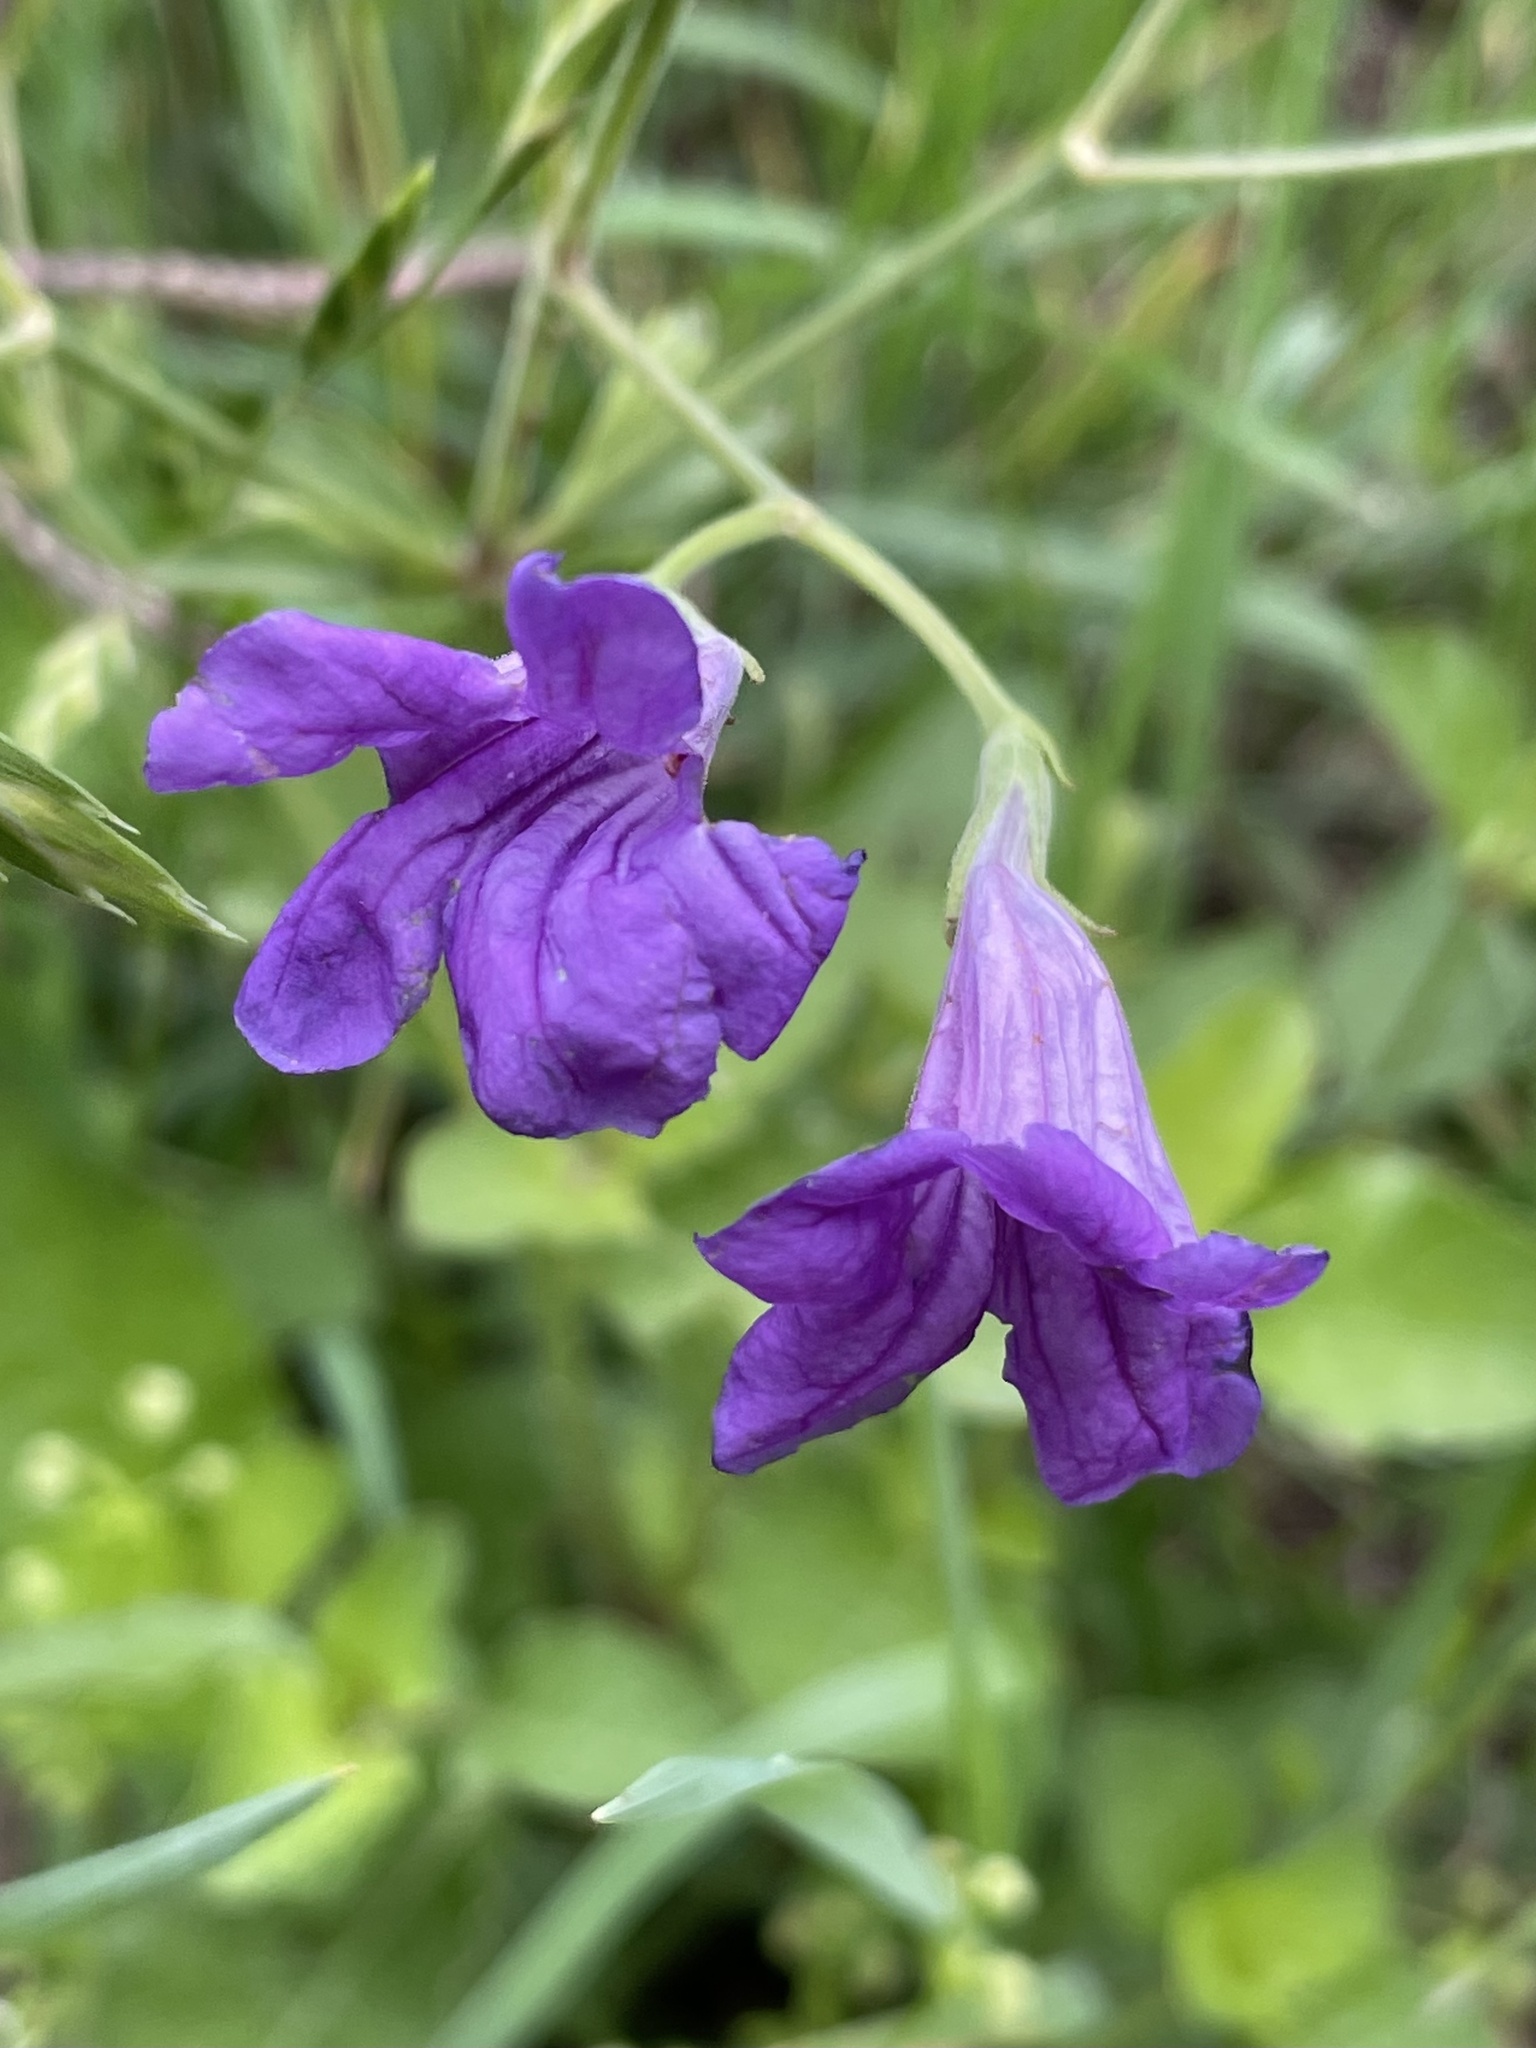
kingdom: Plantae
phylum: Tracheophyta
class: Magnoliopsida
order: Lamiales
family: Acanthaceae
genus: Ruellia
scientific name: Ruellia ciliatiflora
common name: Hairyflower wild petunia
